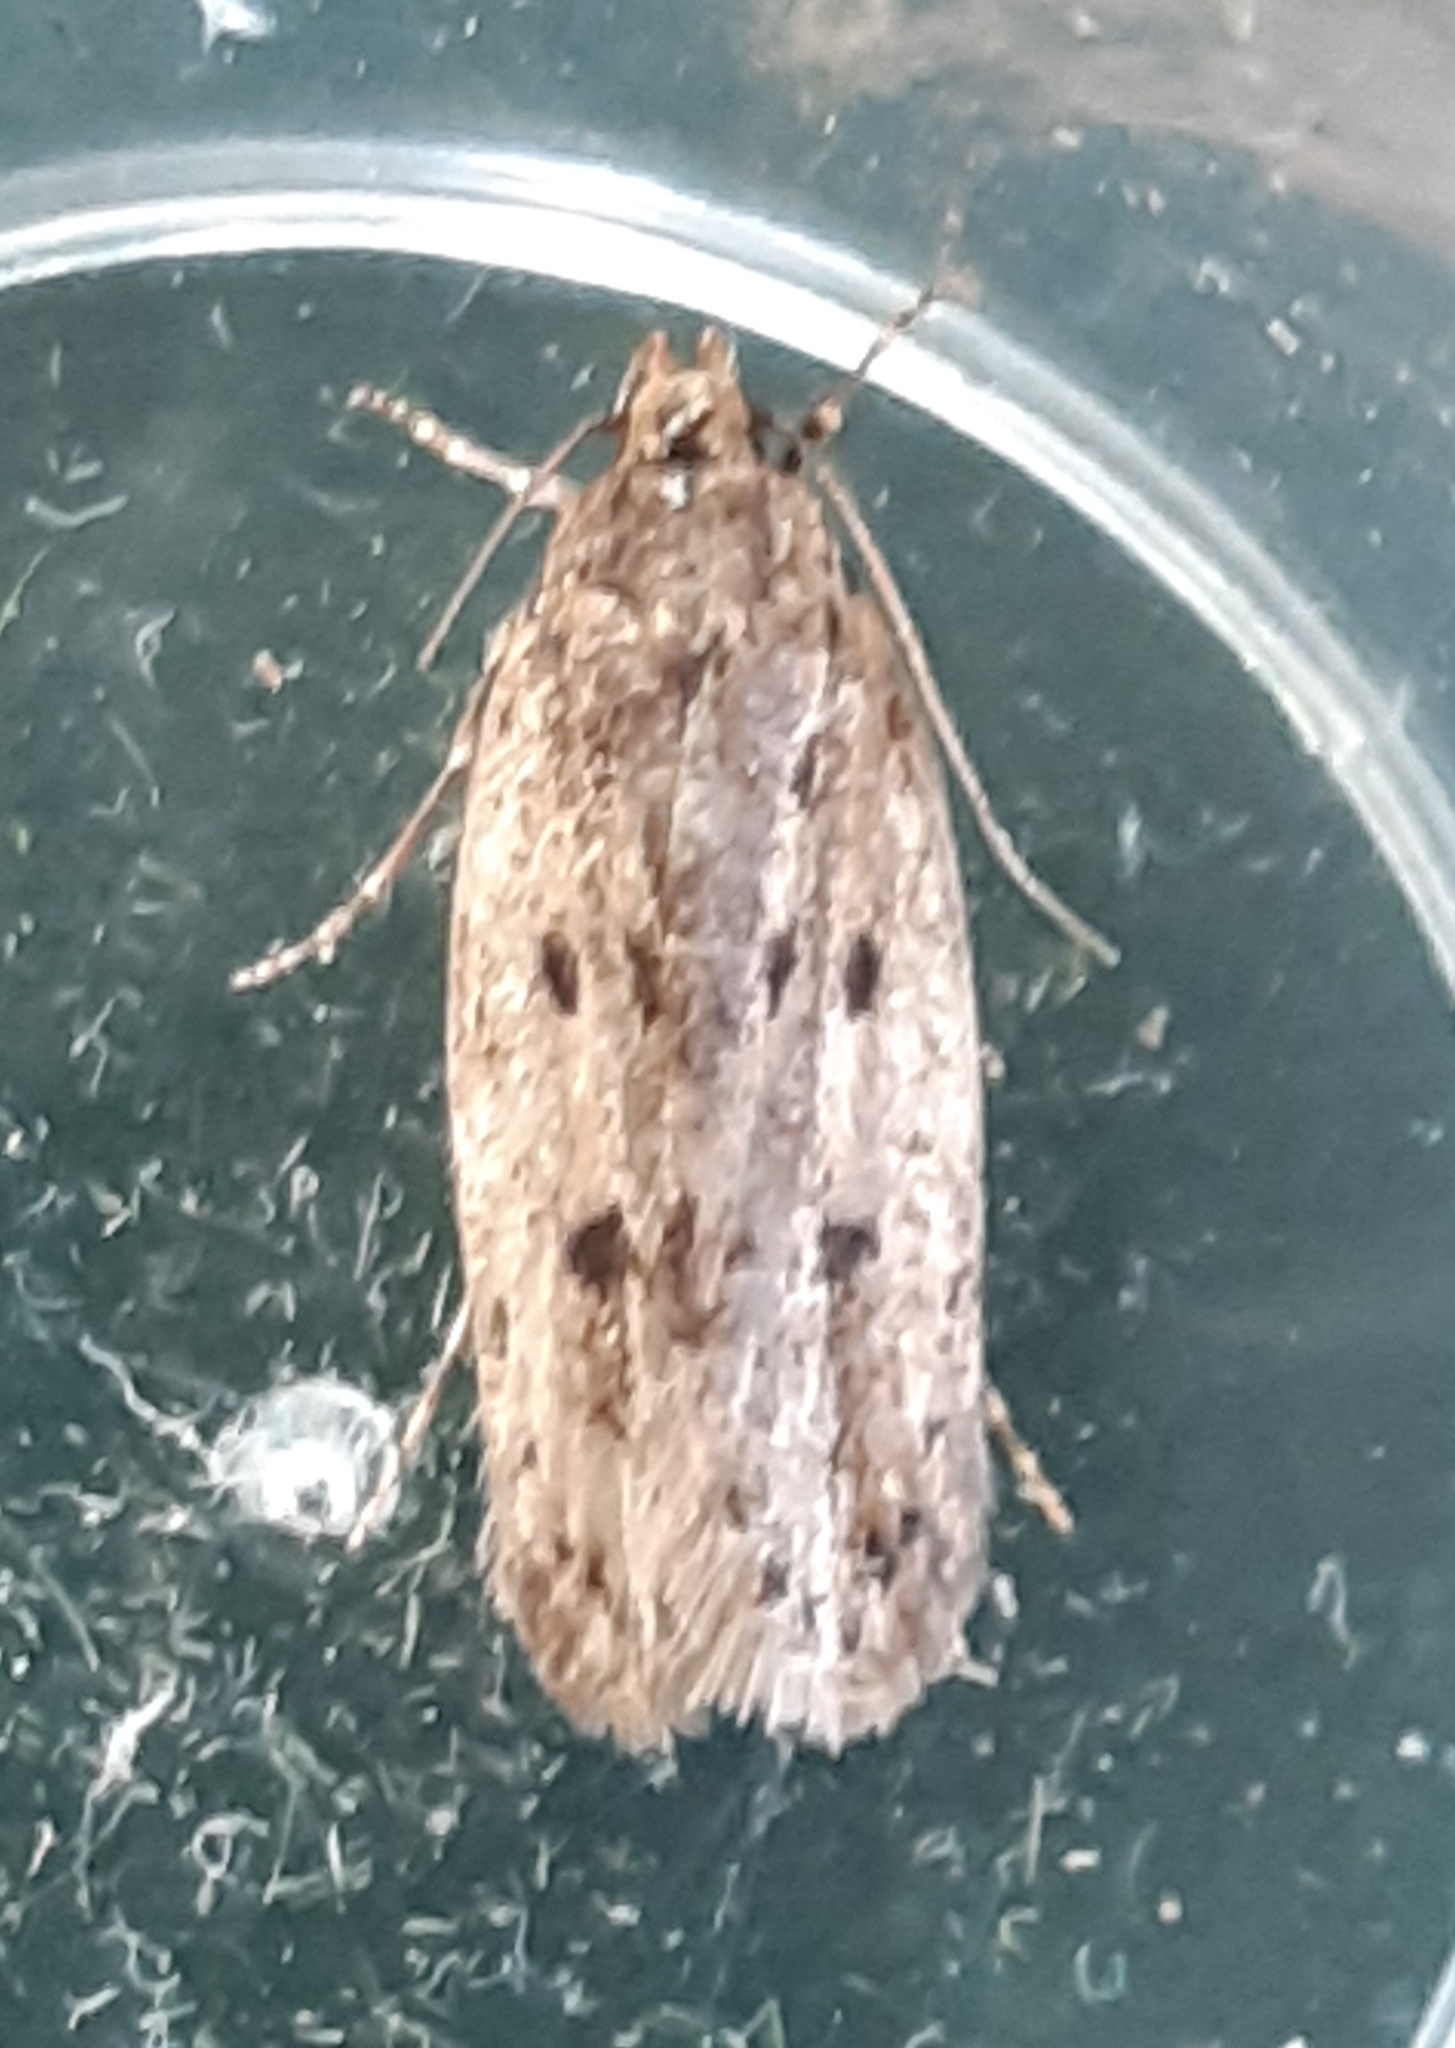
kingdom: Animalia
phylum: Arthropoda
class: Insecta
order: Lepidoptera
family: Oecophoridae
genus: Hofmannophila
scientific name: Hofmannophila pseudospretella
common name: Brown house moth
